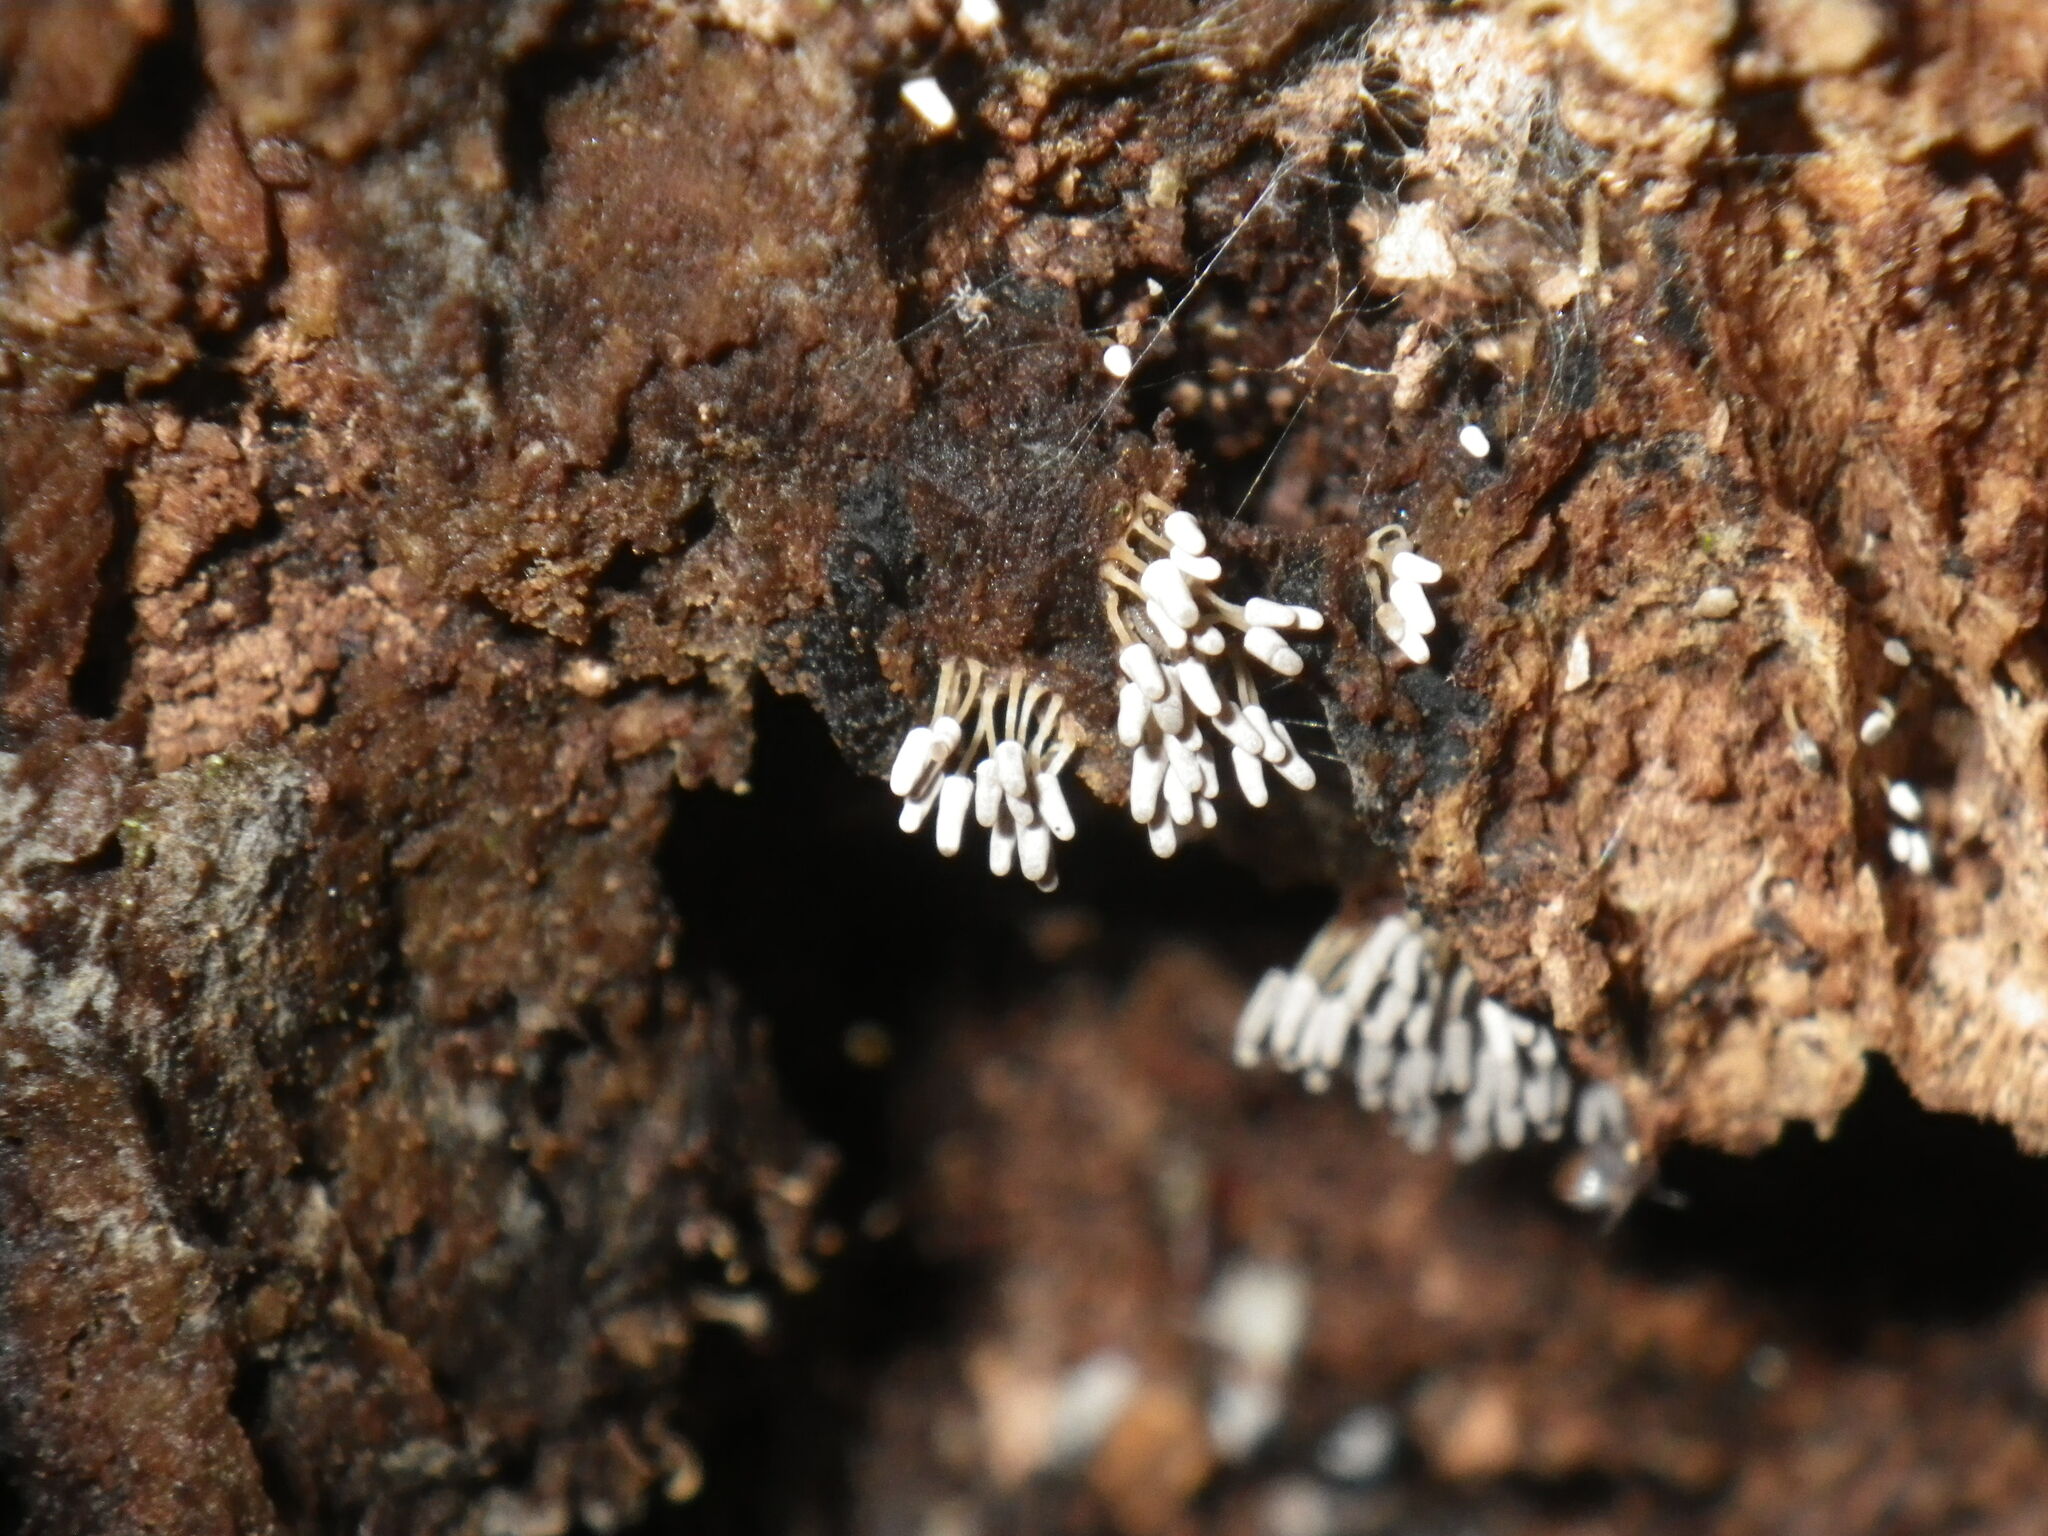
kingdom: Protozoa
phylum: Mycetozoa
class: Myxomycetes
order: Trichiales
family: Arcyriaceae
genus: Arcyria
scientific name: Arcyria cinerea
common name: White carnival candy slime mold
